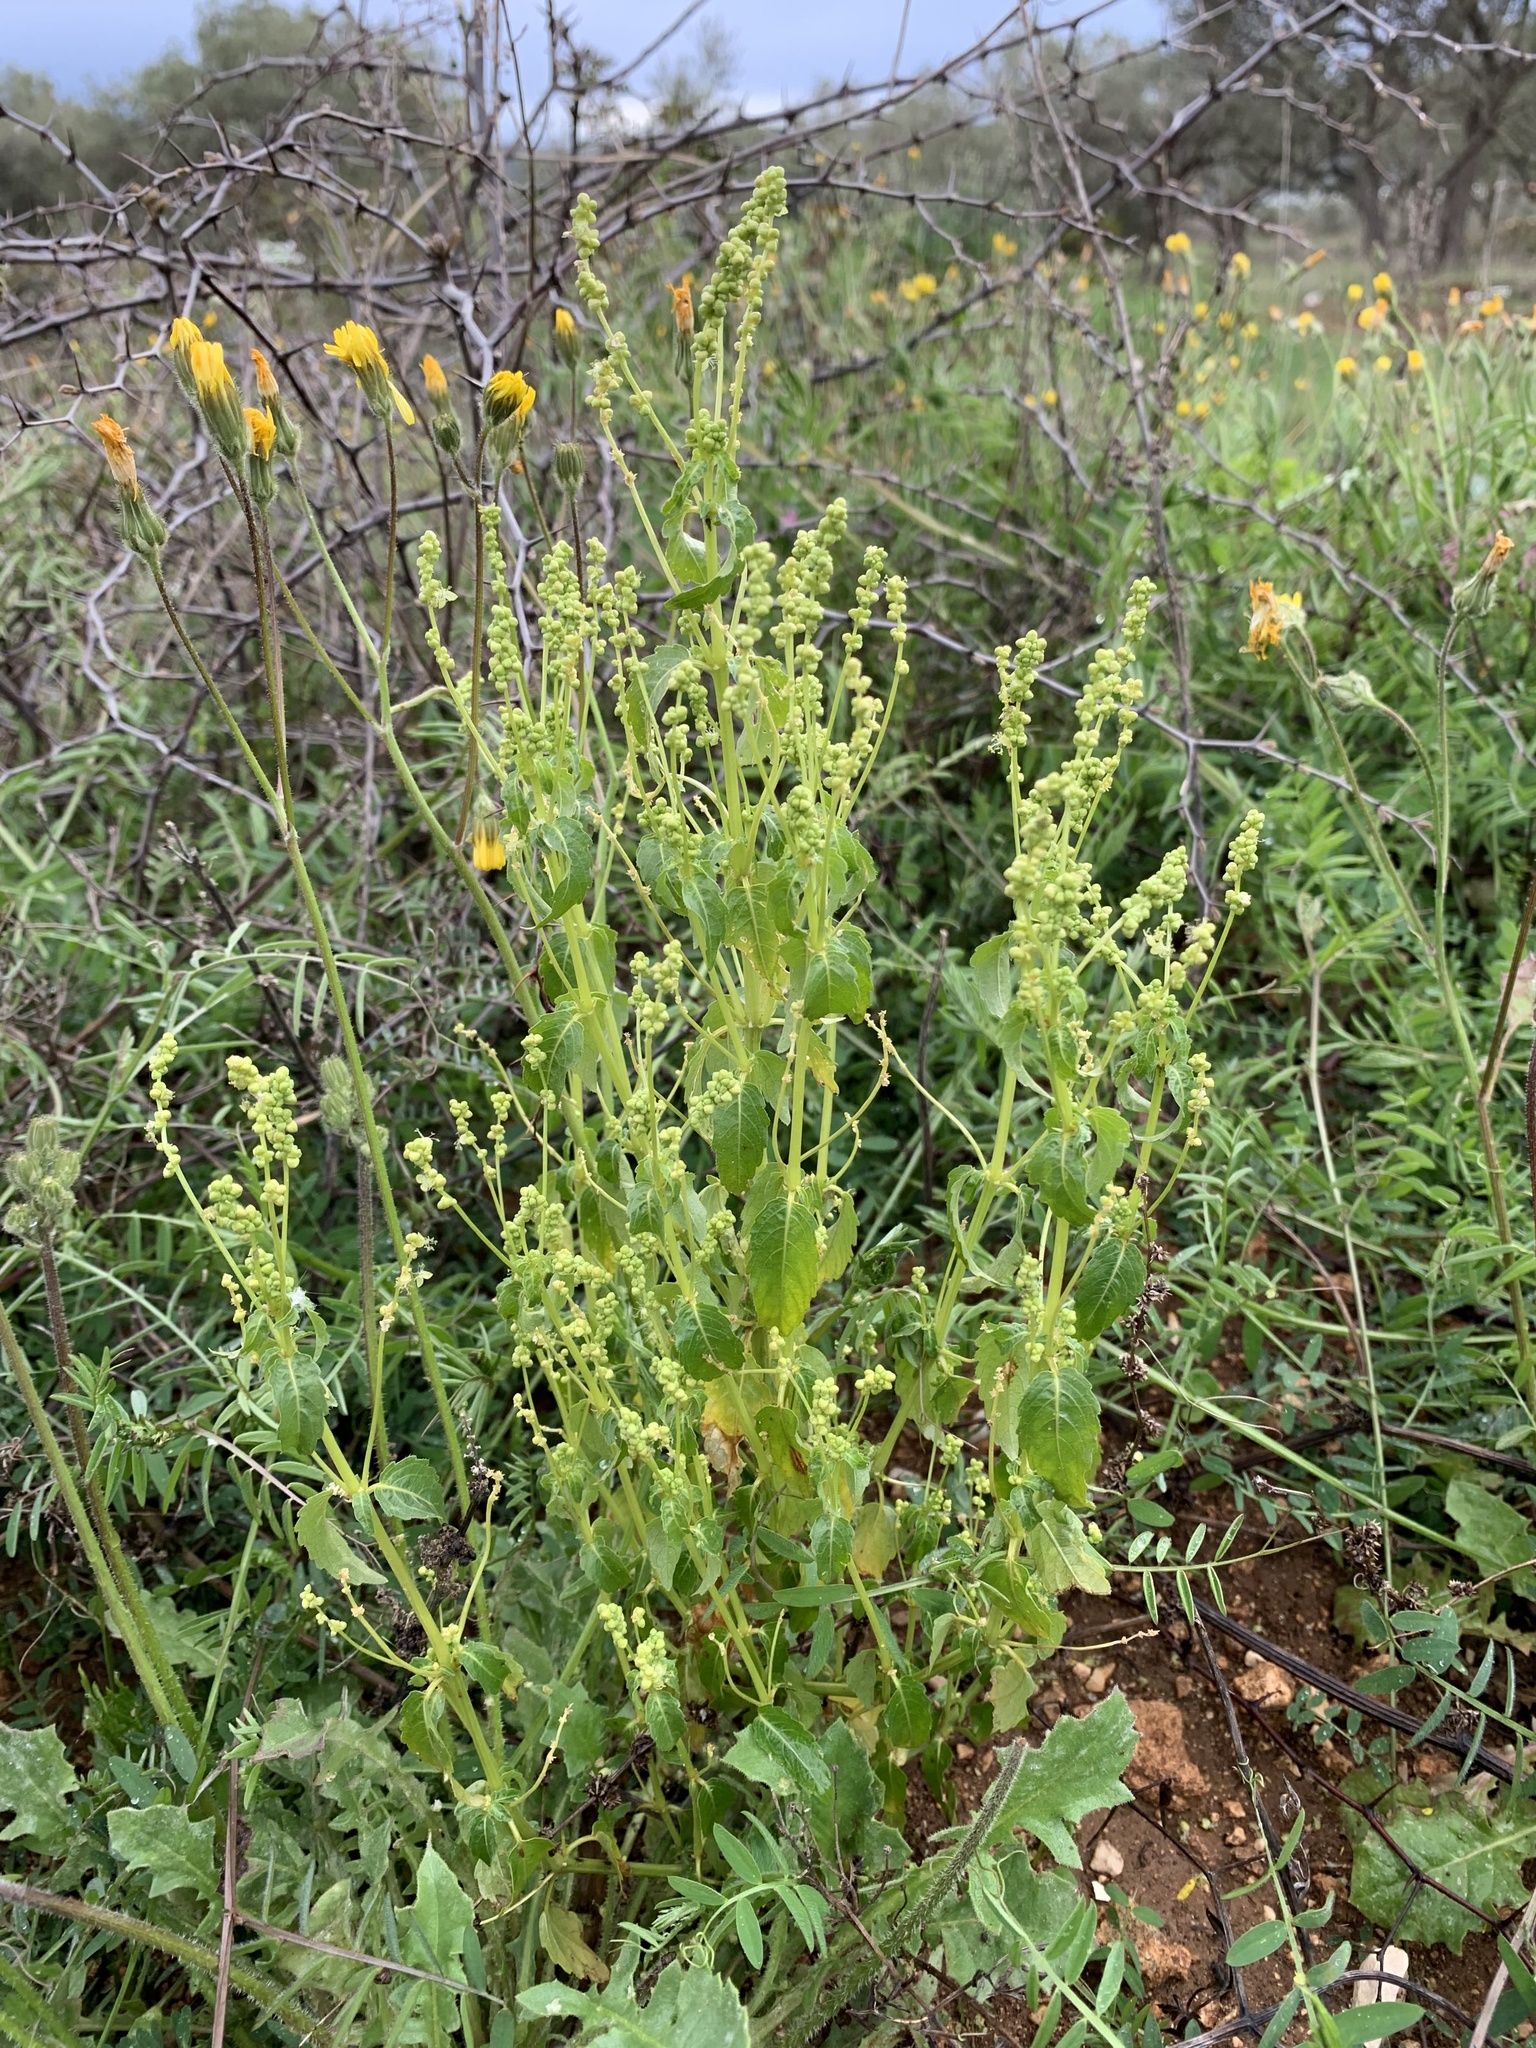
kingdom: Plantae
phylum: Tracheophyta
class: Magnoliopsida
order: Malpighiales
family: Euphorbiaceae
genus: Mercurialis
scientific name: Mercurialis annua
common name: Annual mercury
